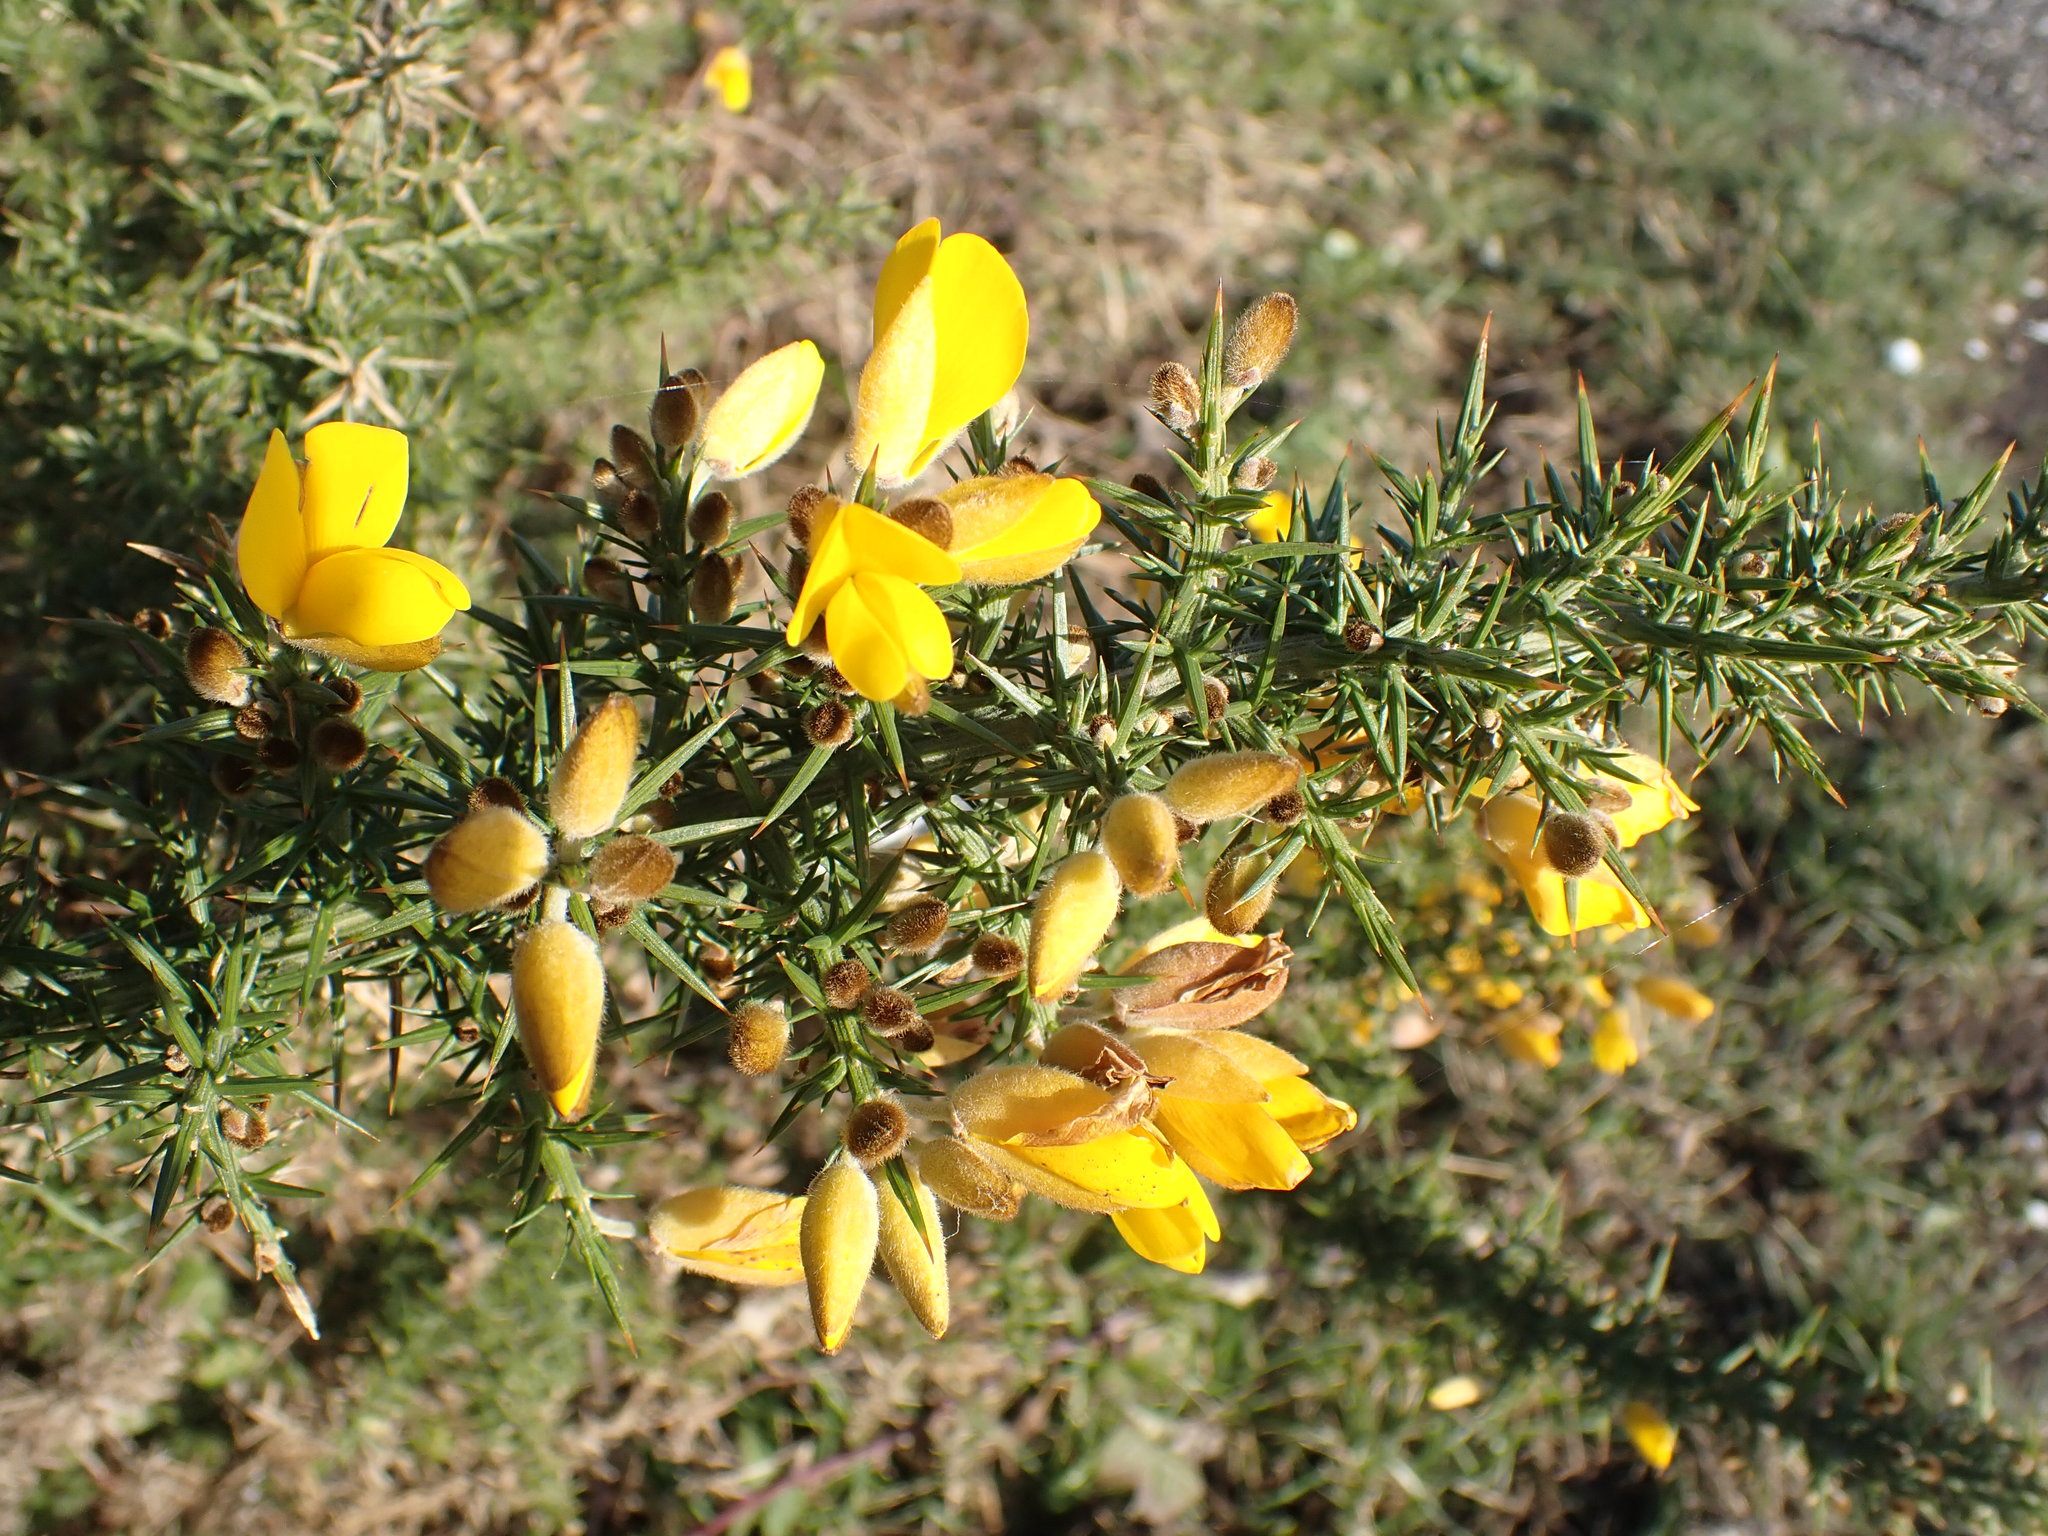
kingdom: Plantae
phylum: Tracheophyta
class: Magnoliopsida
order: Fabales
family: Fabaceae
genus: Ulex
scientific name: Ulex europaeus
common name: Common gorse
